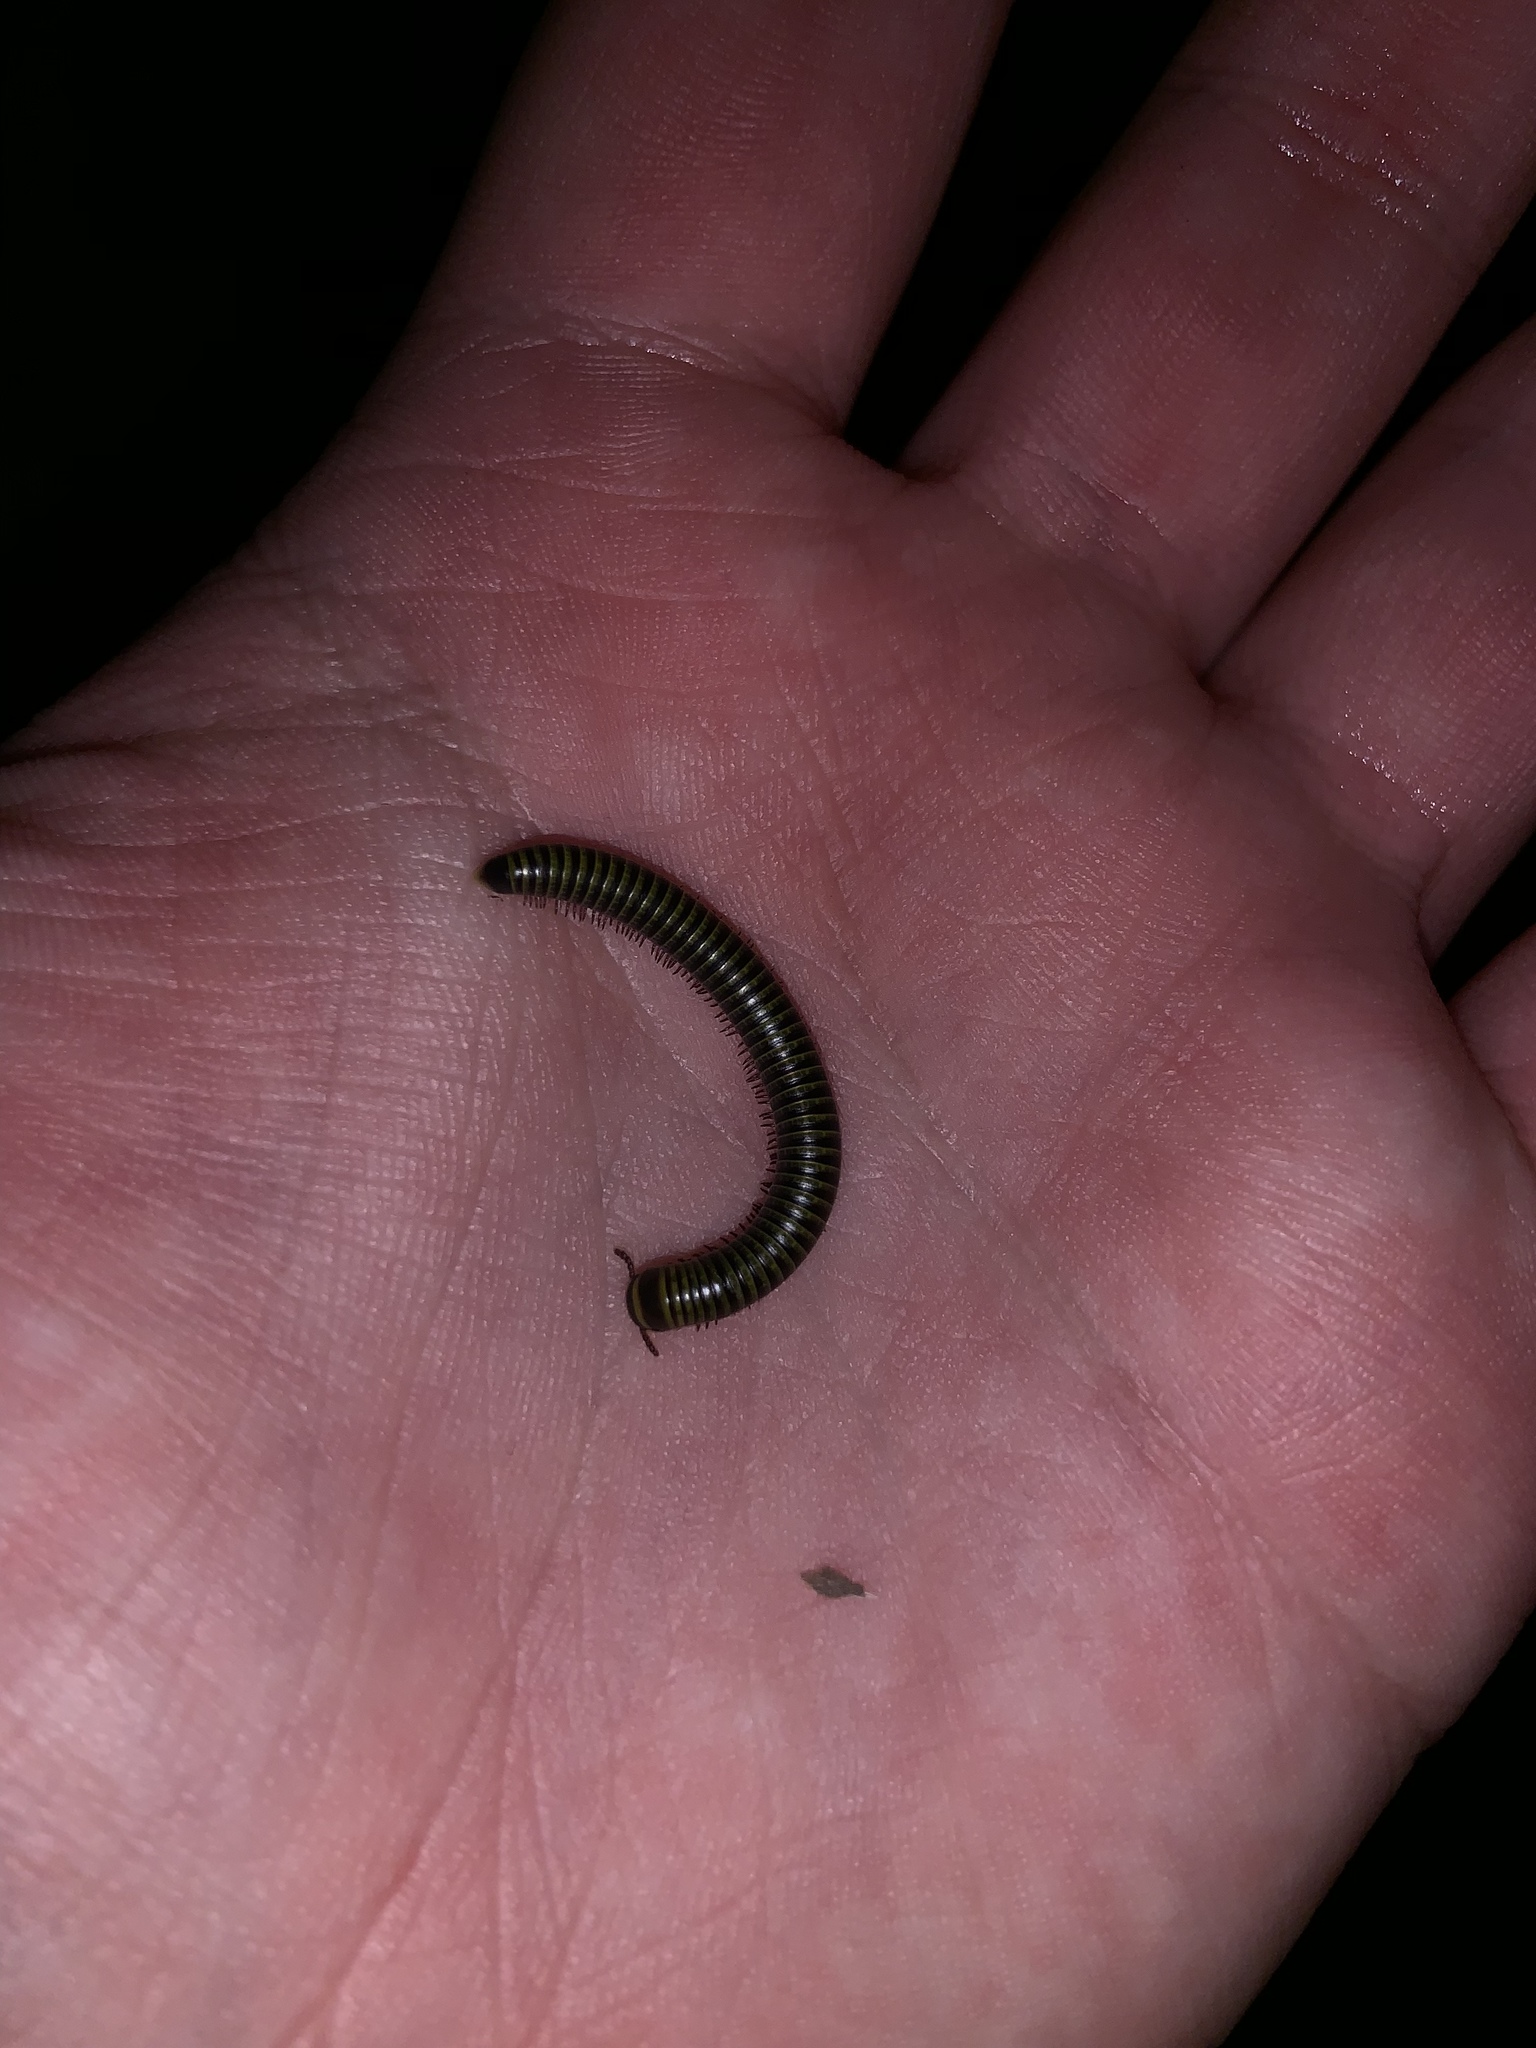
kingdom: Animalia
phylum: Arthropoda
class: Diplopoda
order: Spirobolida
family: Rhinocricidae
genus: Anadenobolus
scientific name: Anadenobolus monilicornis
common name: Caribbean millipede
